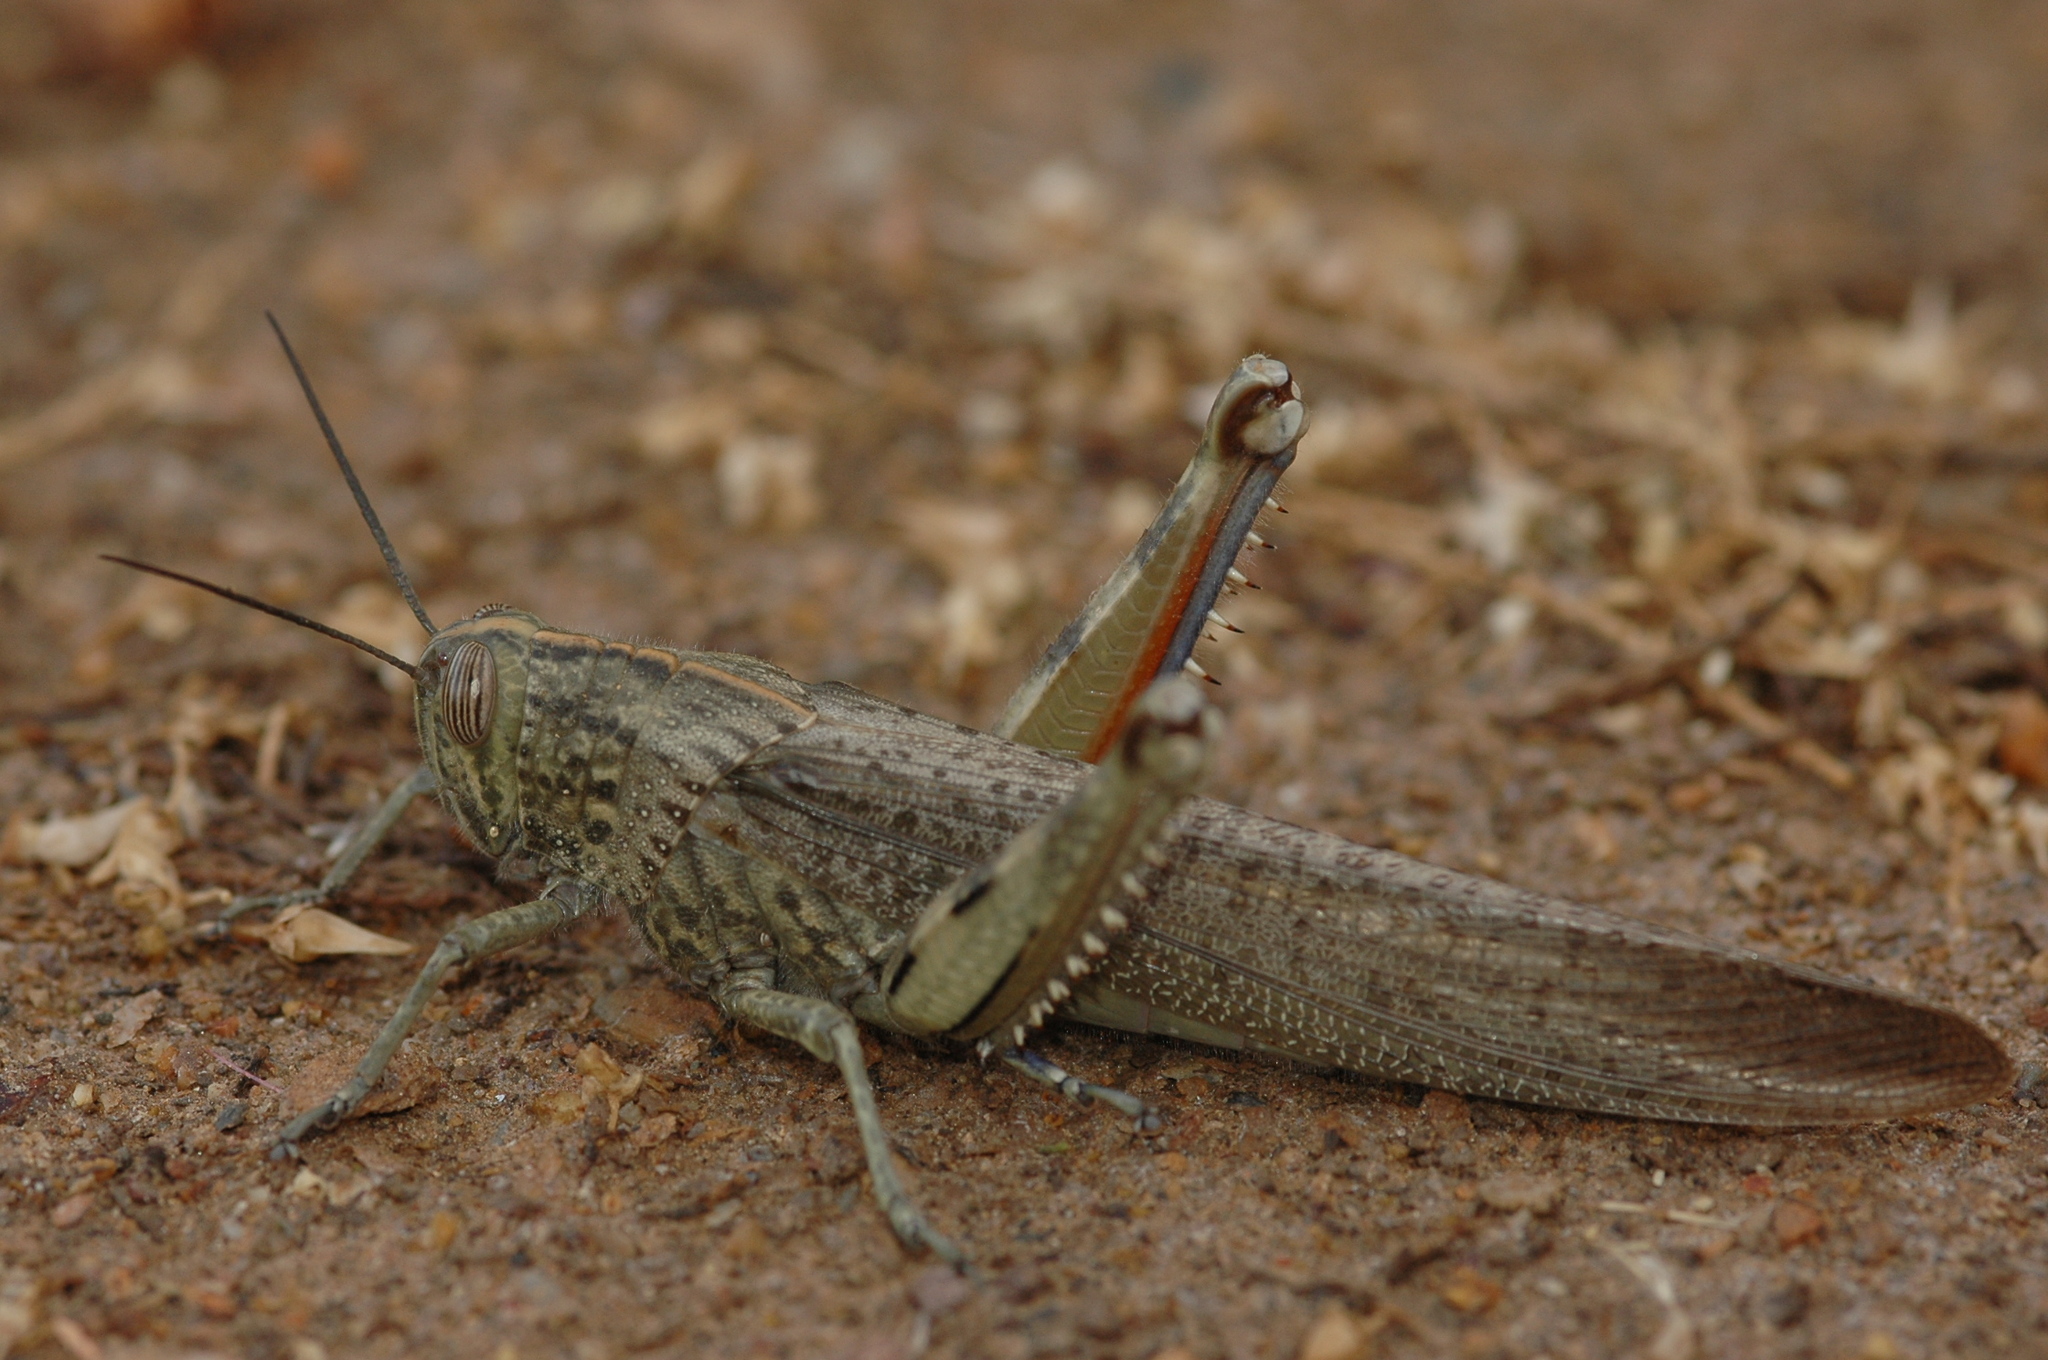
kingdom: Animalia
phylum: Arthropoda
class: Insecta
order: Orthoptera
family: Acrididae
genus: Anacridium
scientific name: Anacridium aegyptium
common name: Egyptian grasshopper
